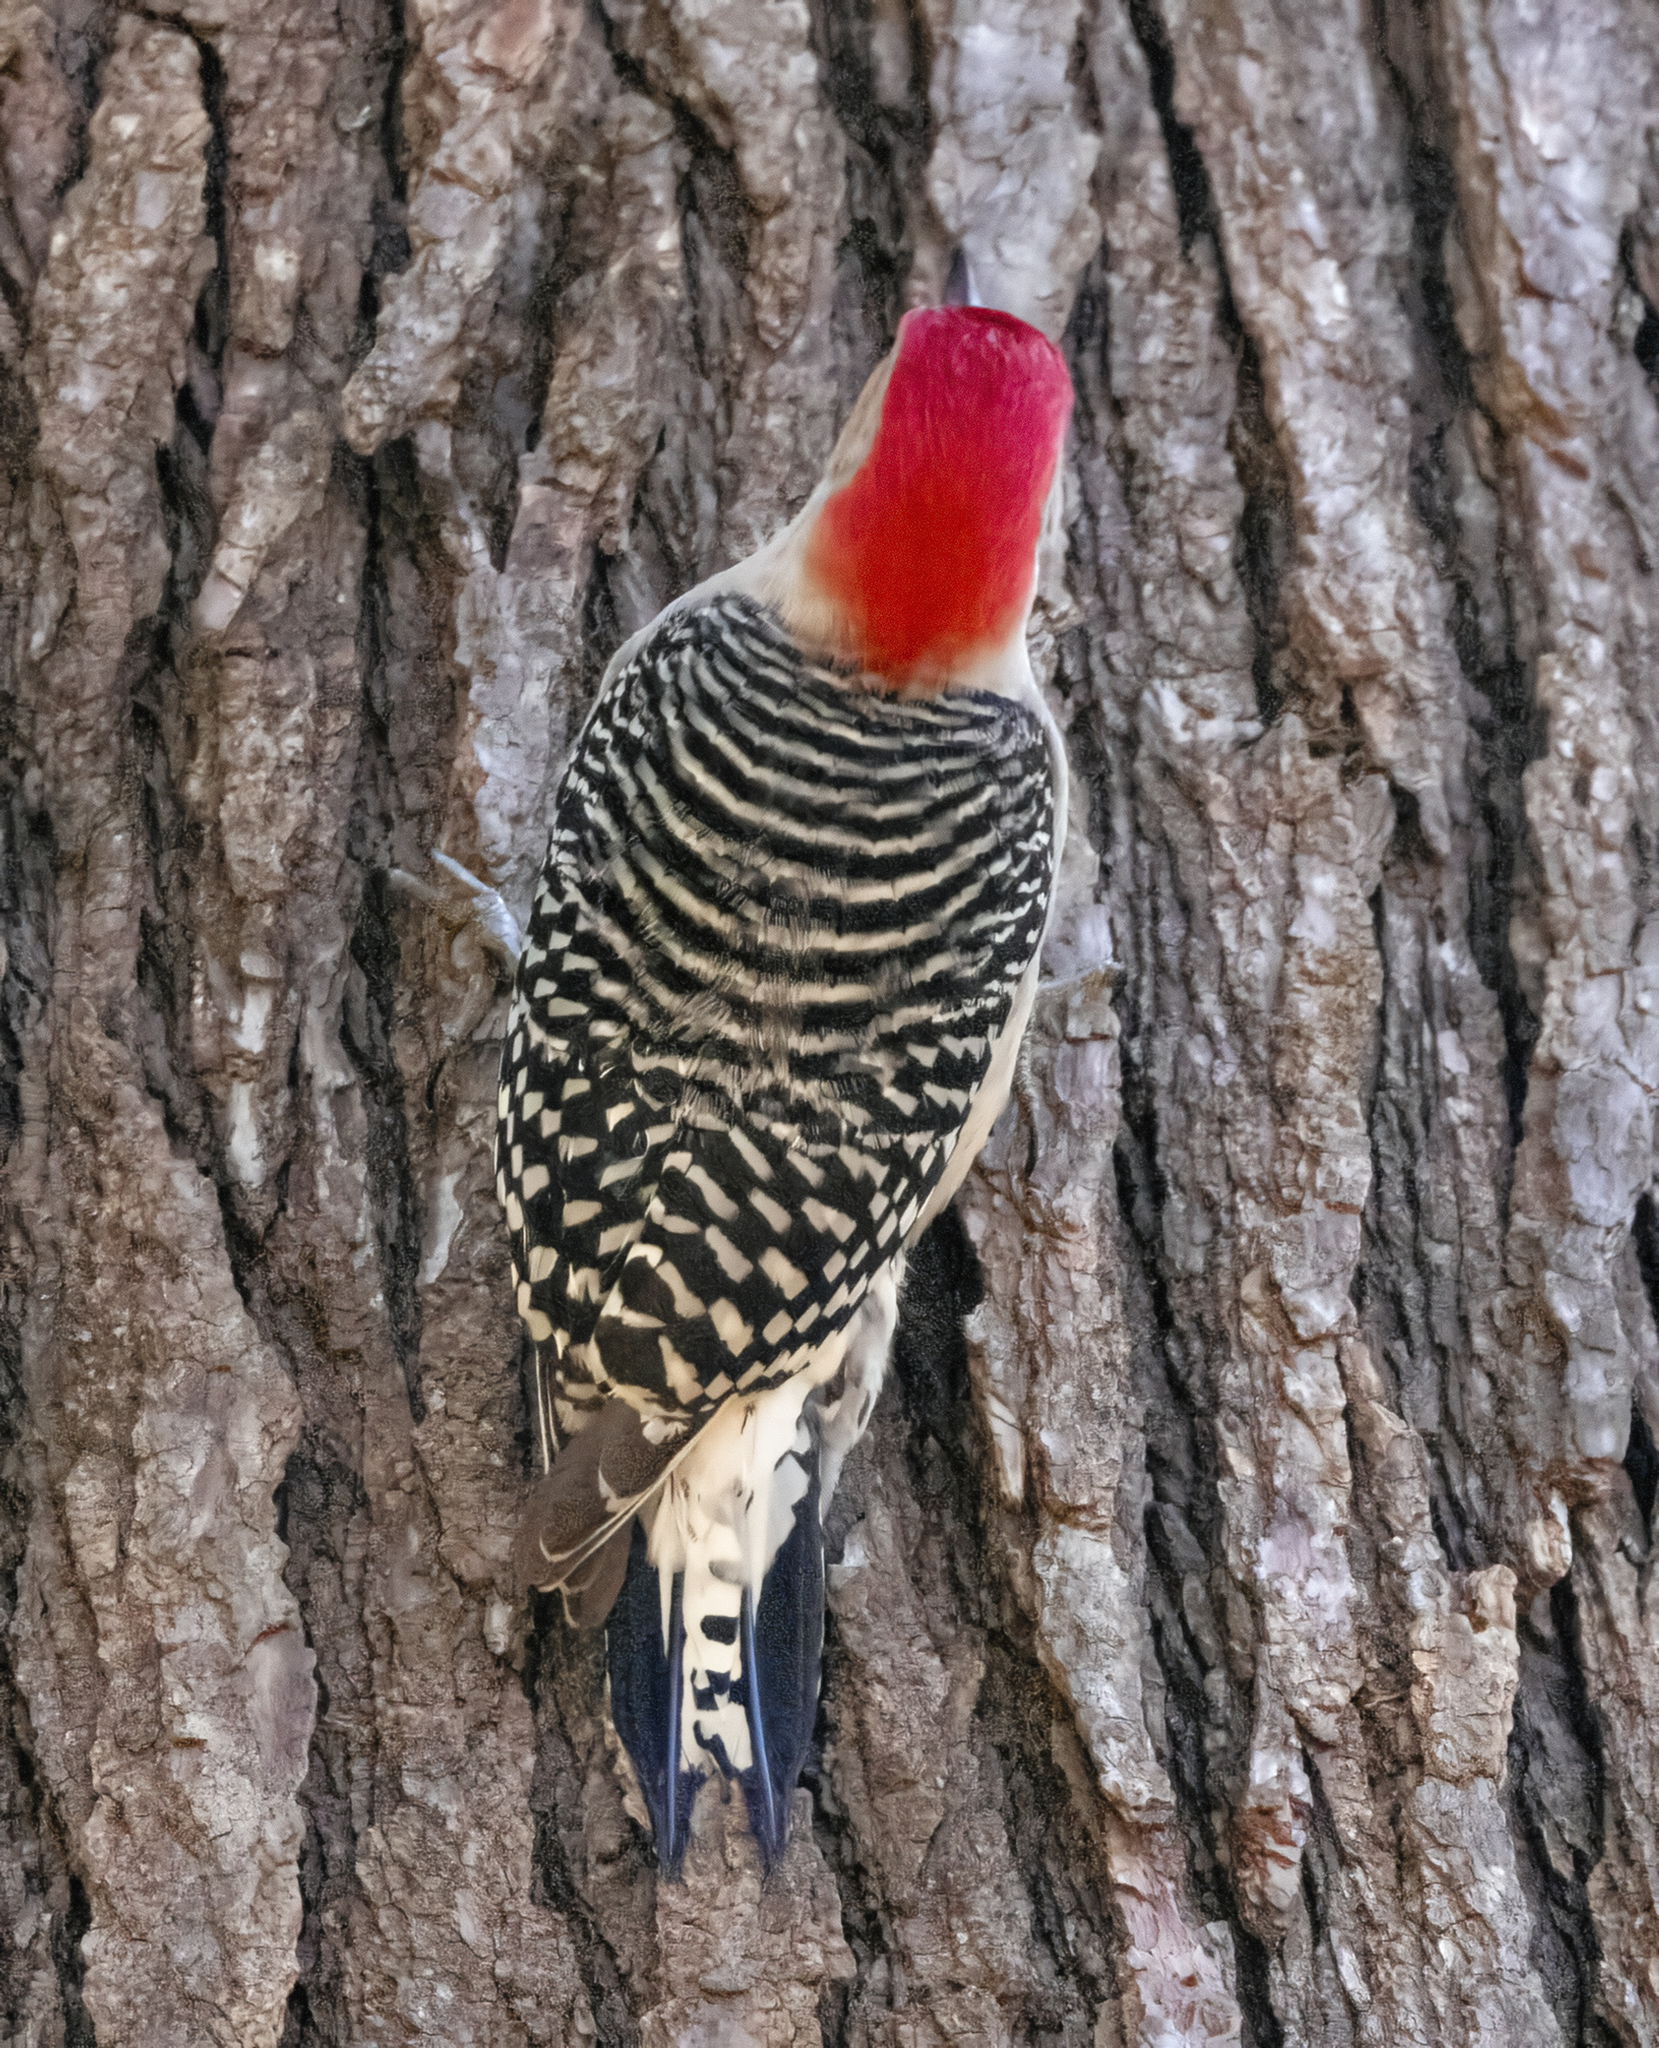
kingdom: Animalia
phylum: Chordata
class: Aves
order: Piciformes
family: Picidae
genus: Melanerpes
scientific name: Melanerpes carolinus
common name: Red-bellied woodpecker
